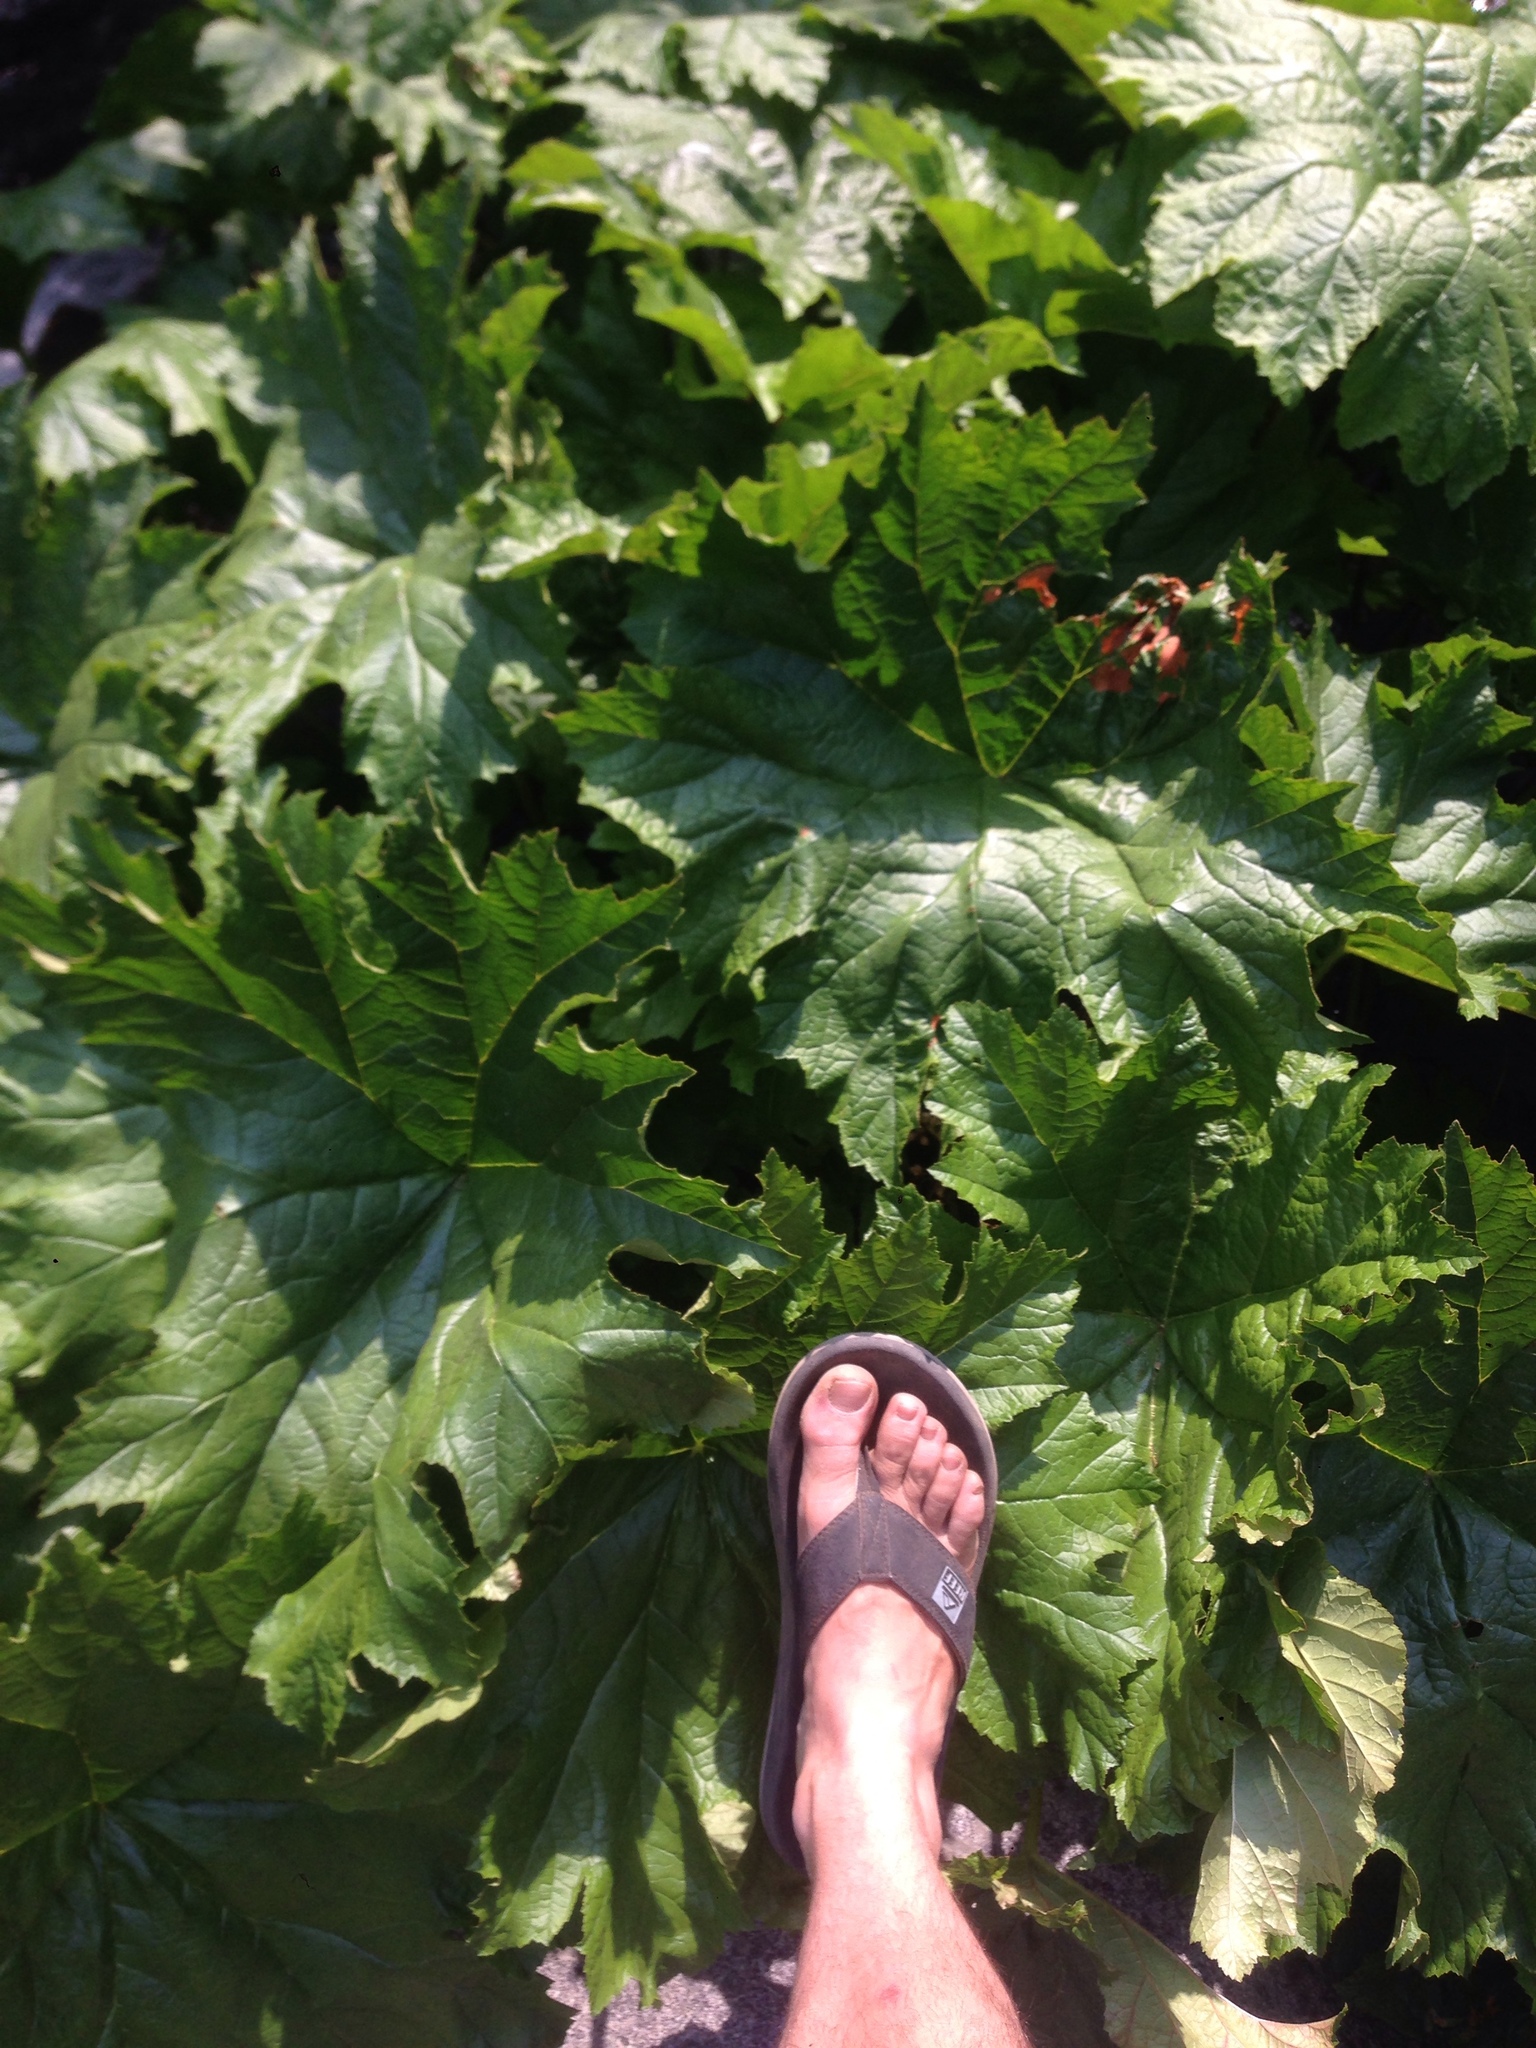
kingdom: Plantae
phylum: Tracheophyta
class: Magnoliopsida
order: Saxifragales
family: Saxifragaceae
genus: Darmera
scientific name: Darmera peltata
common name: Indian-rhubarb
